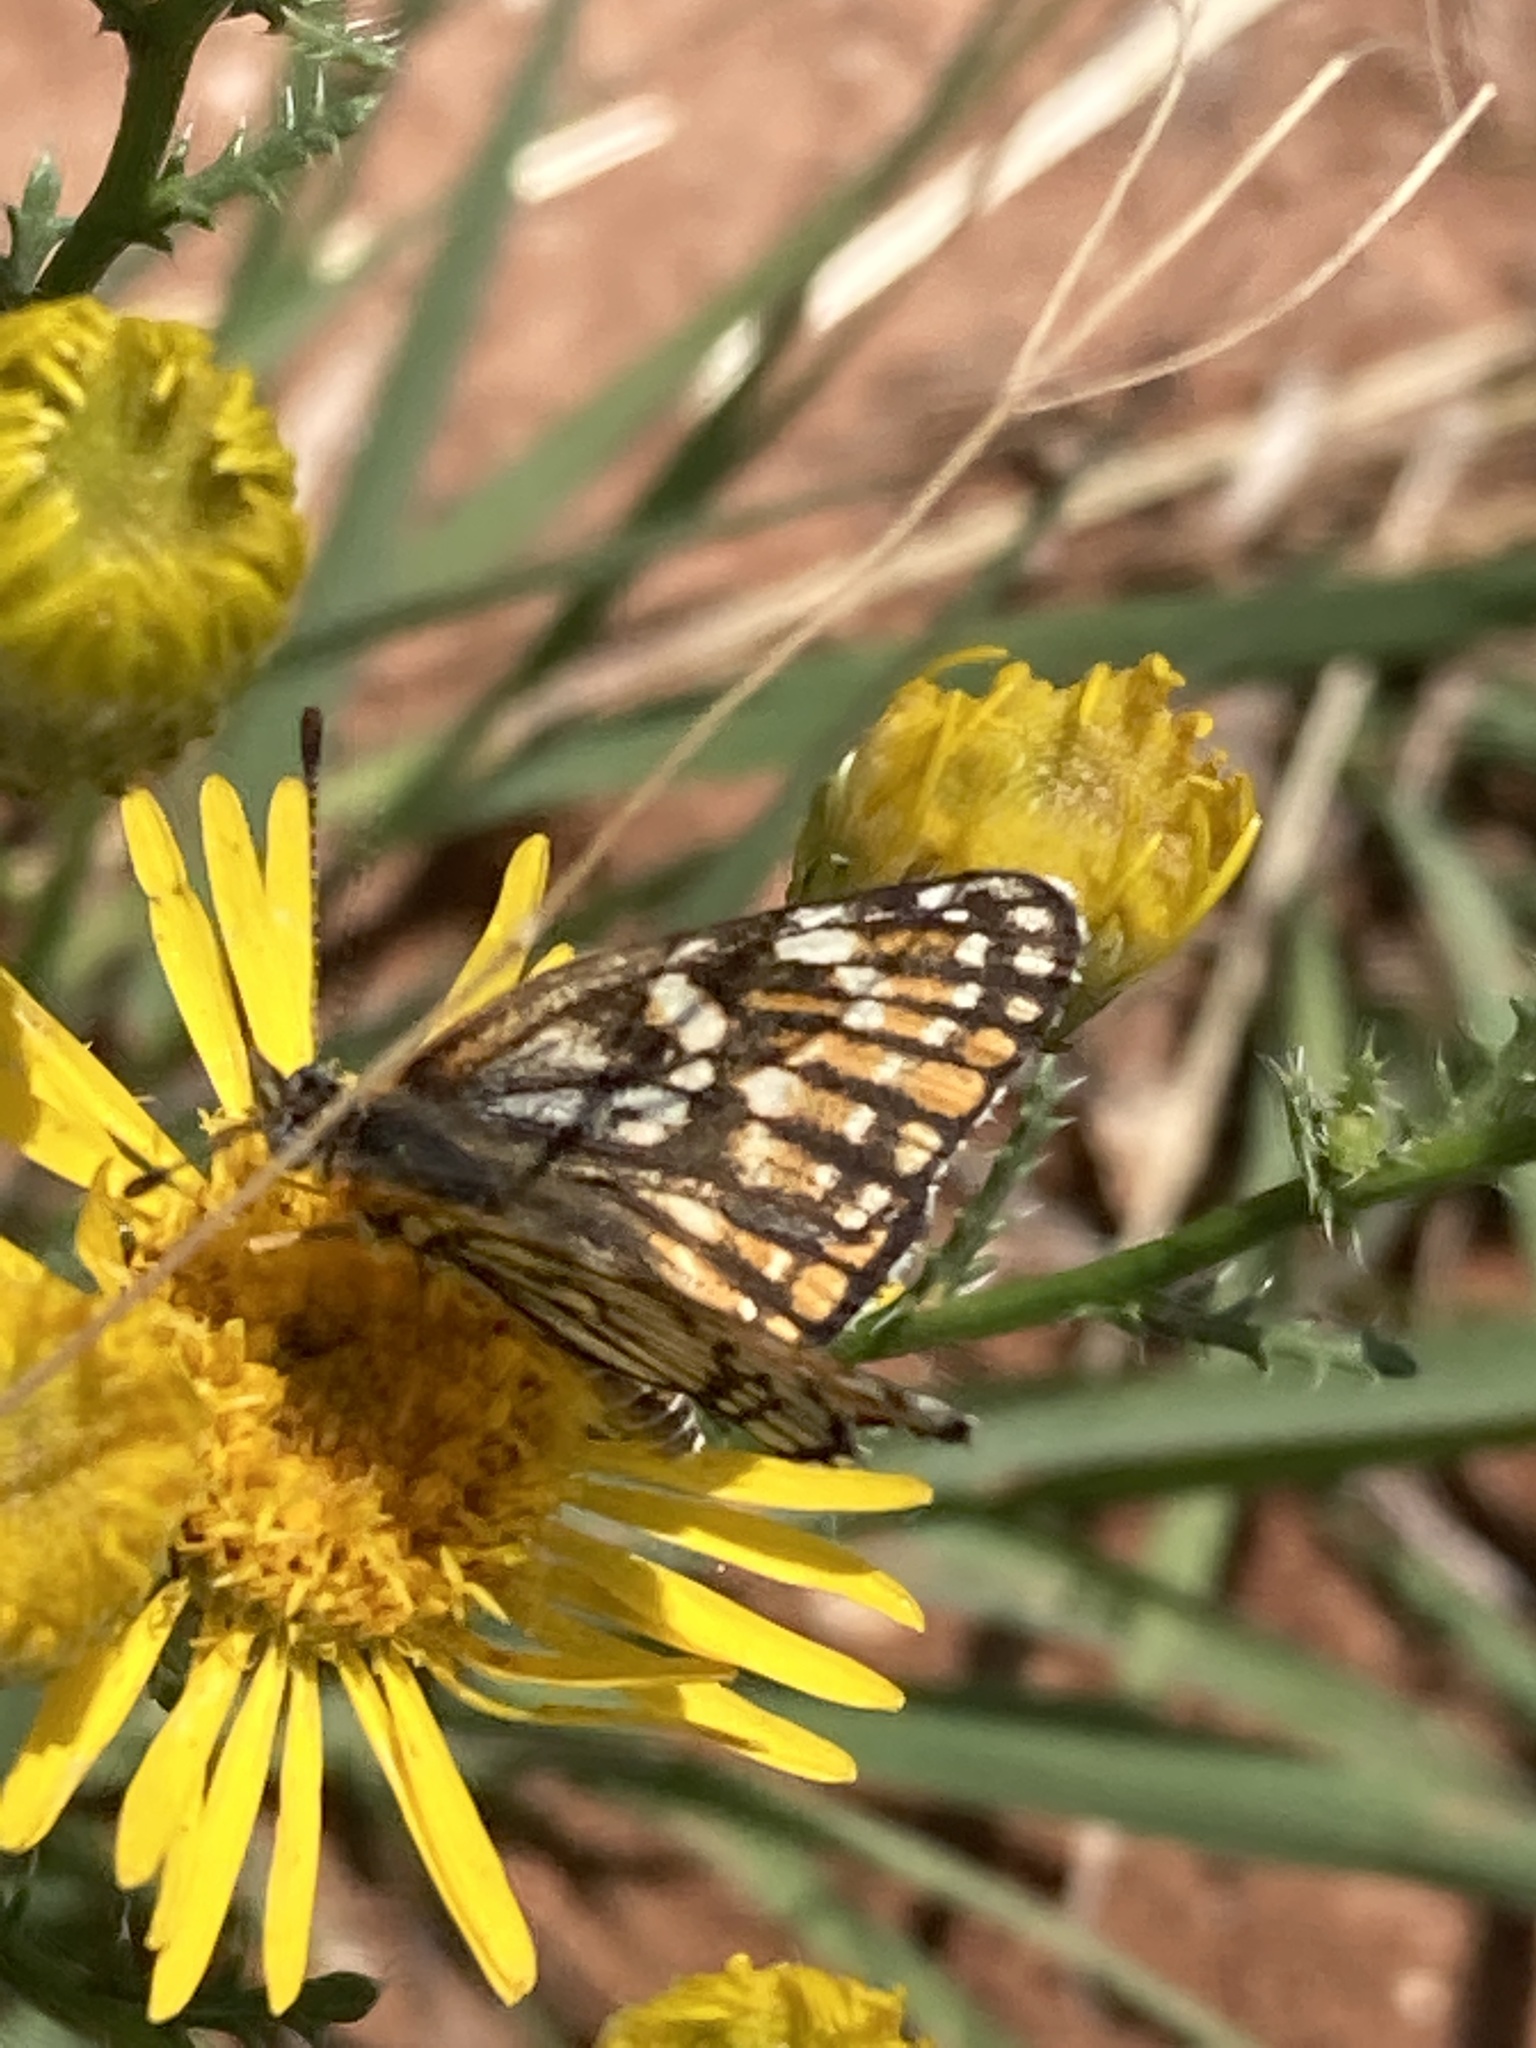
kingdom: Animalia
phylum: Arthropoda
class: Insecta
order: Lepidoptera
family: Nymphalidae
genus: Thessalia
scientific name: Thessalia leanira
